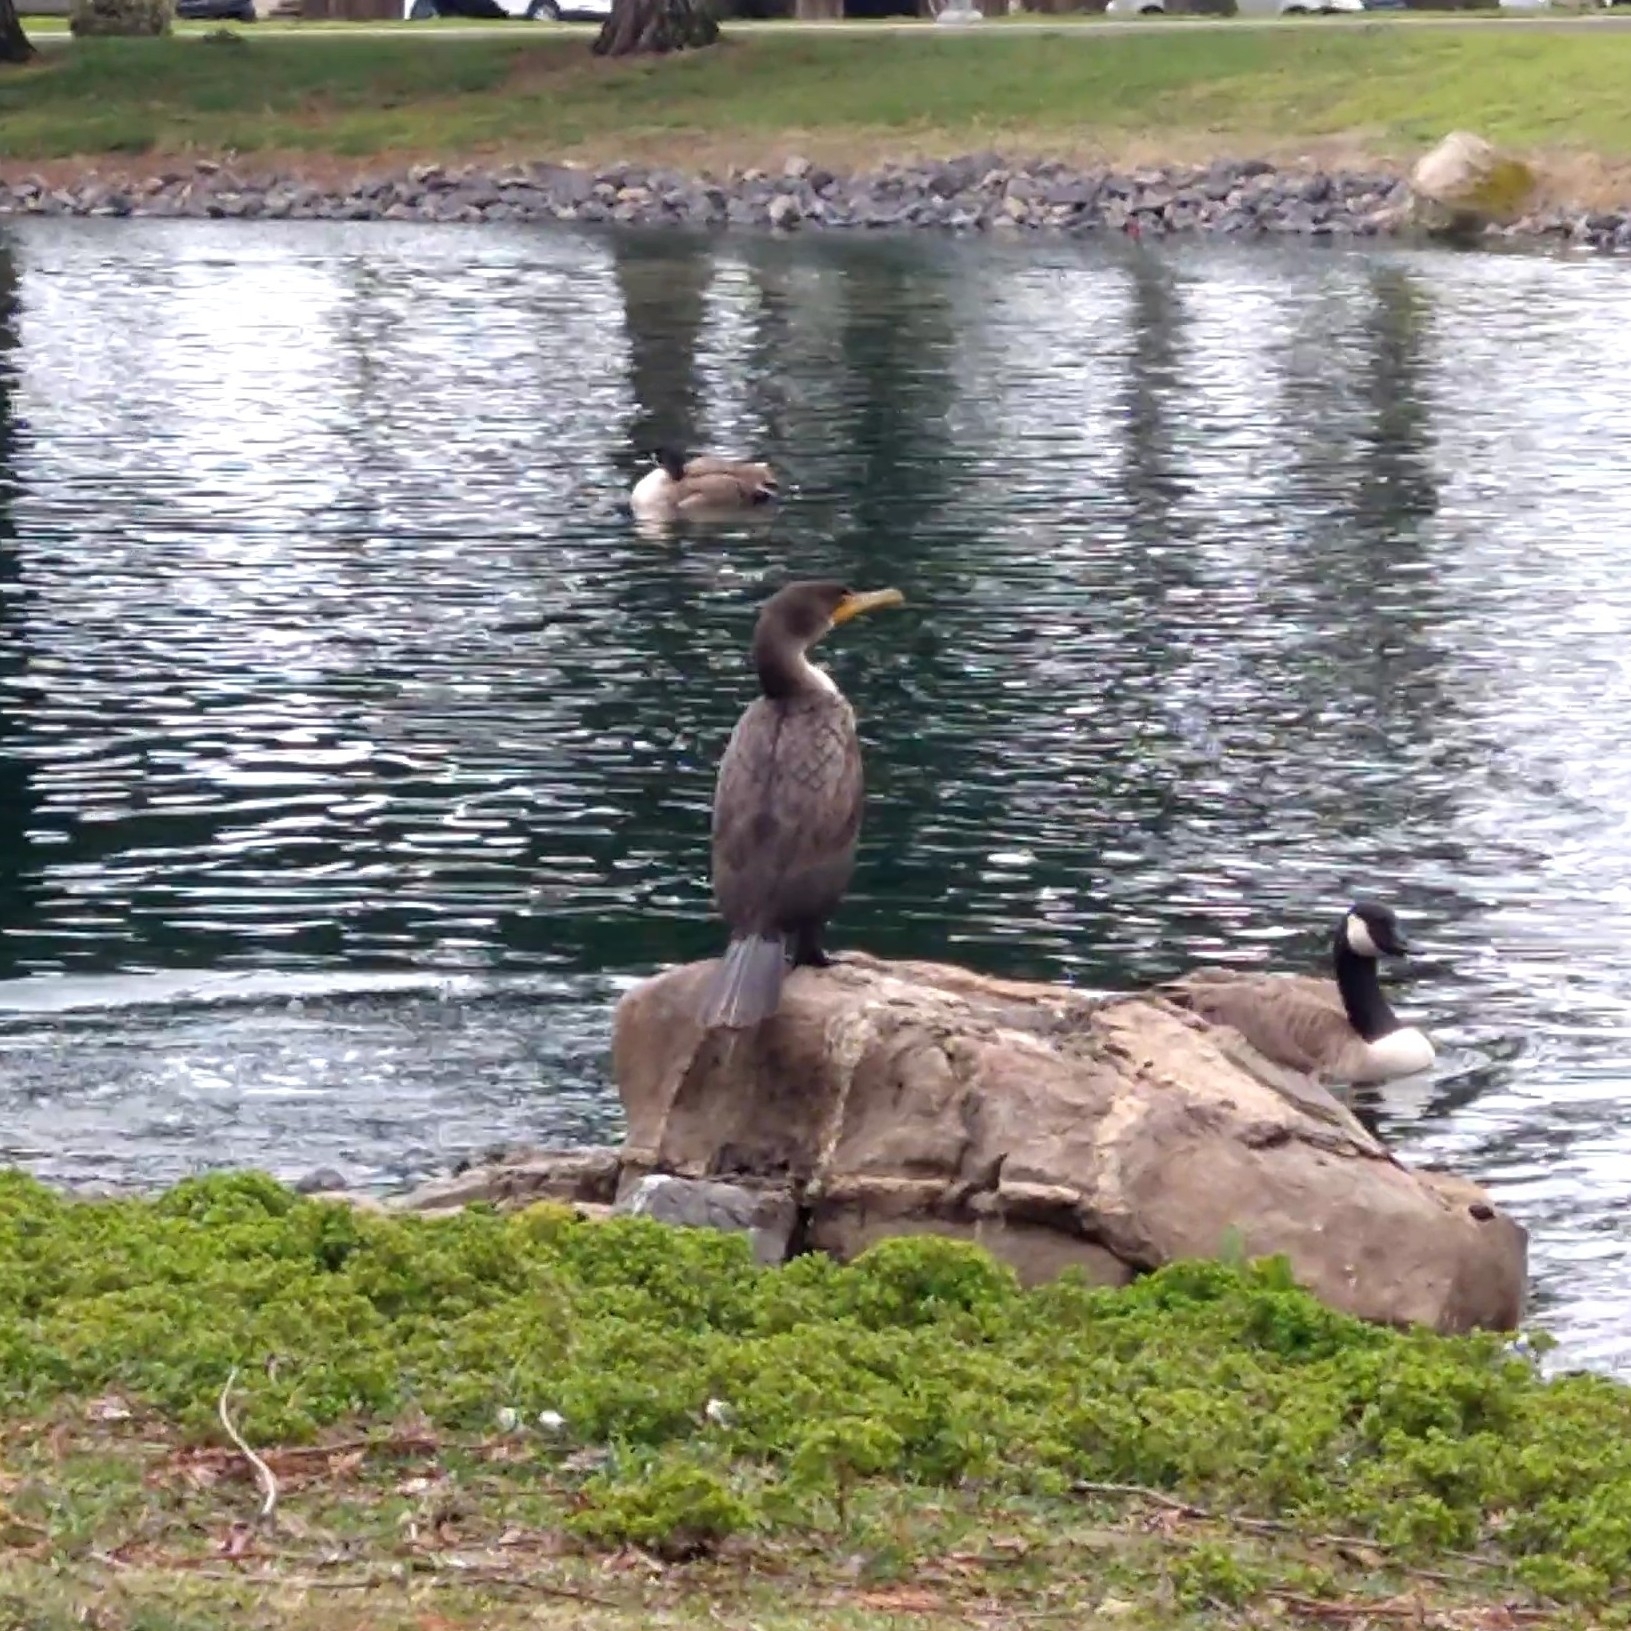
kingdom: Animalia
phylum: Chordata
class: Aves
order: Suliformes
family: Phalacrocoracidae
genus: Phalacrocorax
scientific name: Phalacrocorax auritus
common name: Double-crested cormorant
